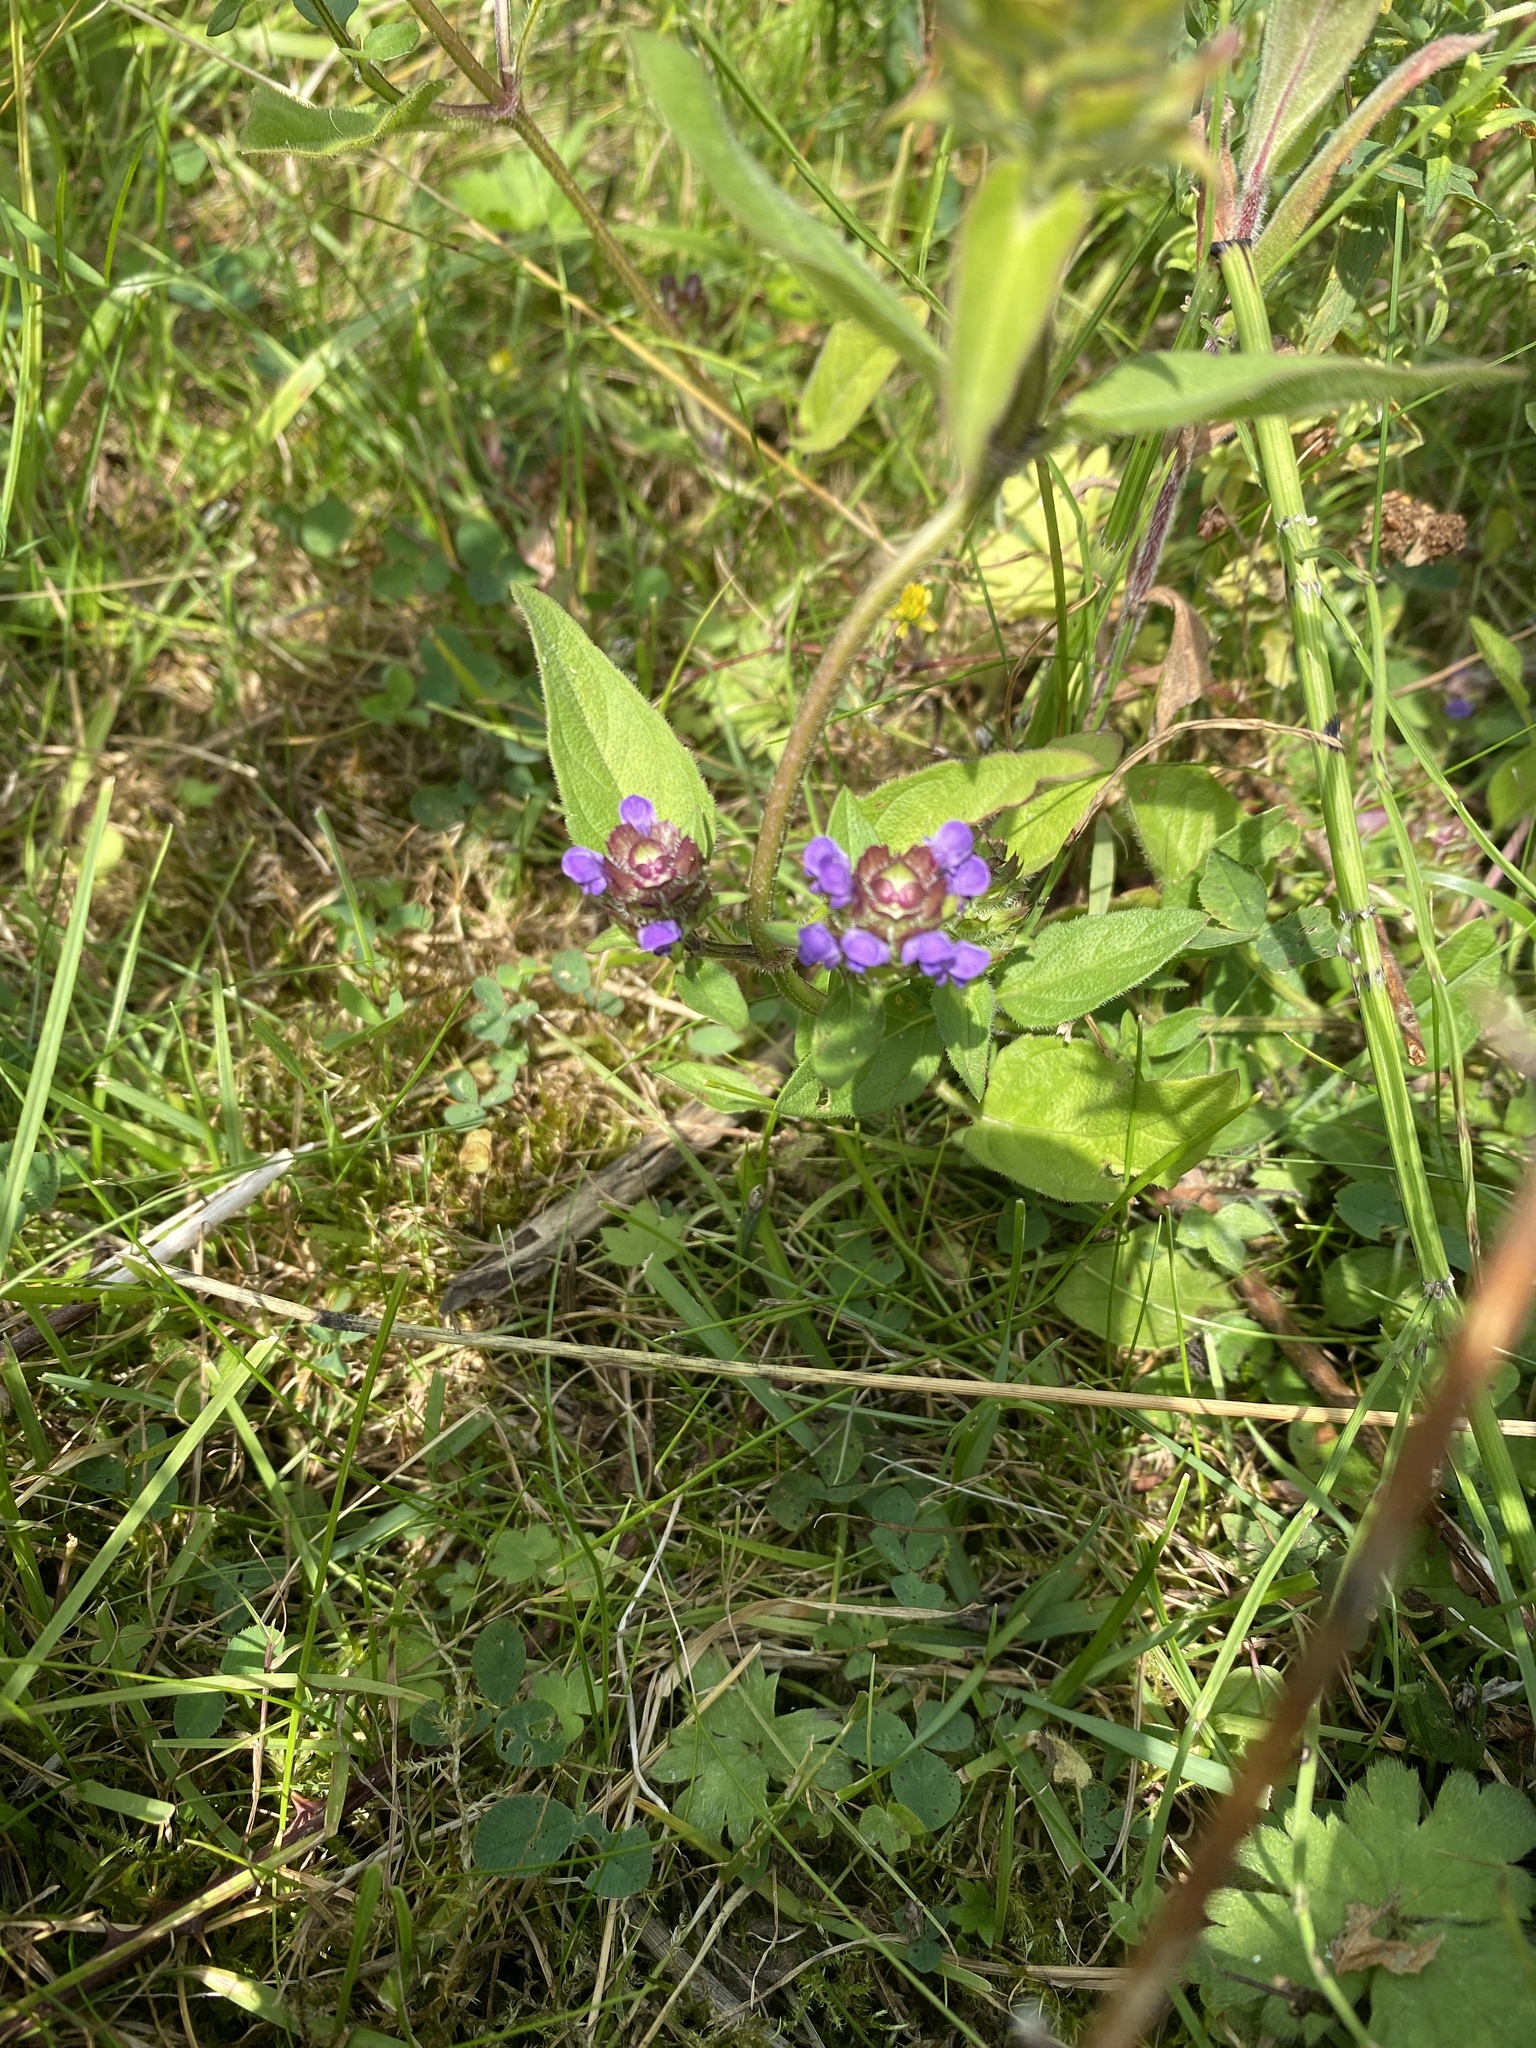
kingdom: Plantae
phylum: Tracheophyta
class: Magnoliopsida
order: Lamiales
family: Lamiaceae
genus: Prunella
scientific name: Prunella vulgaris
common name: Heal-all
